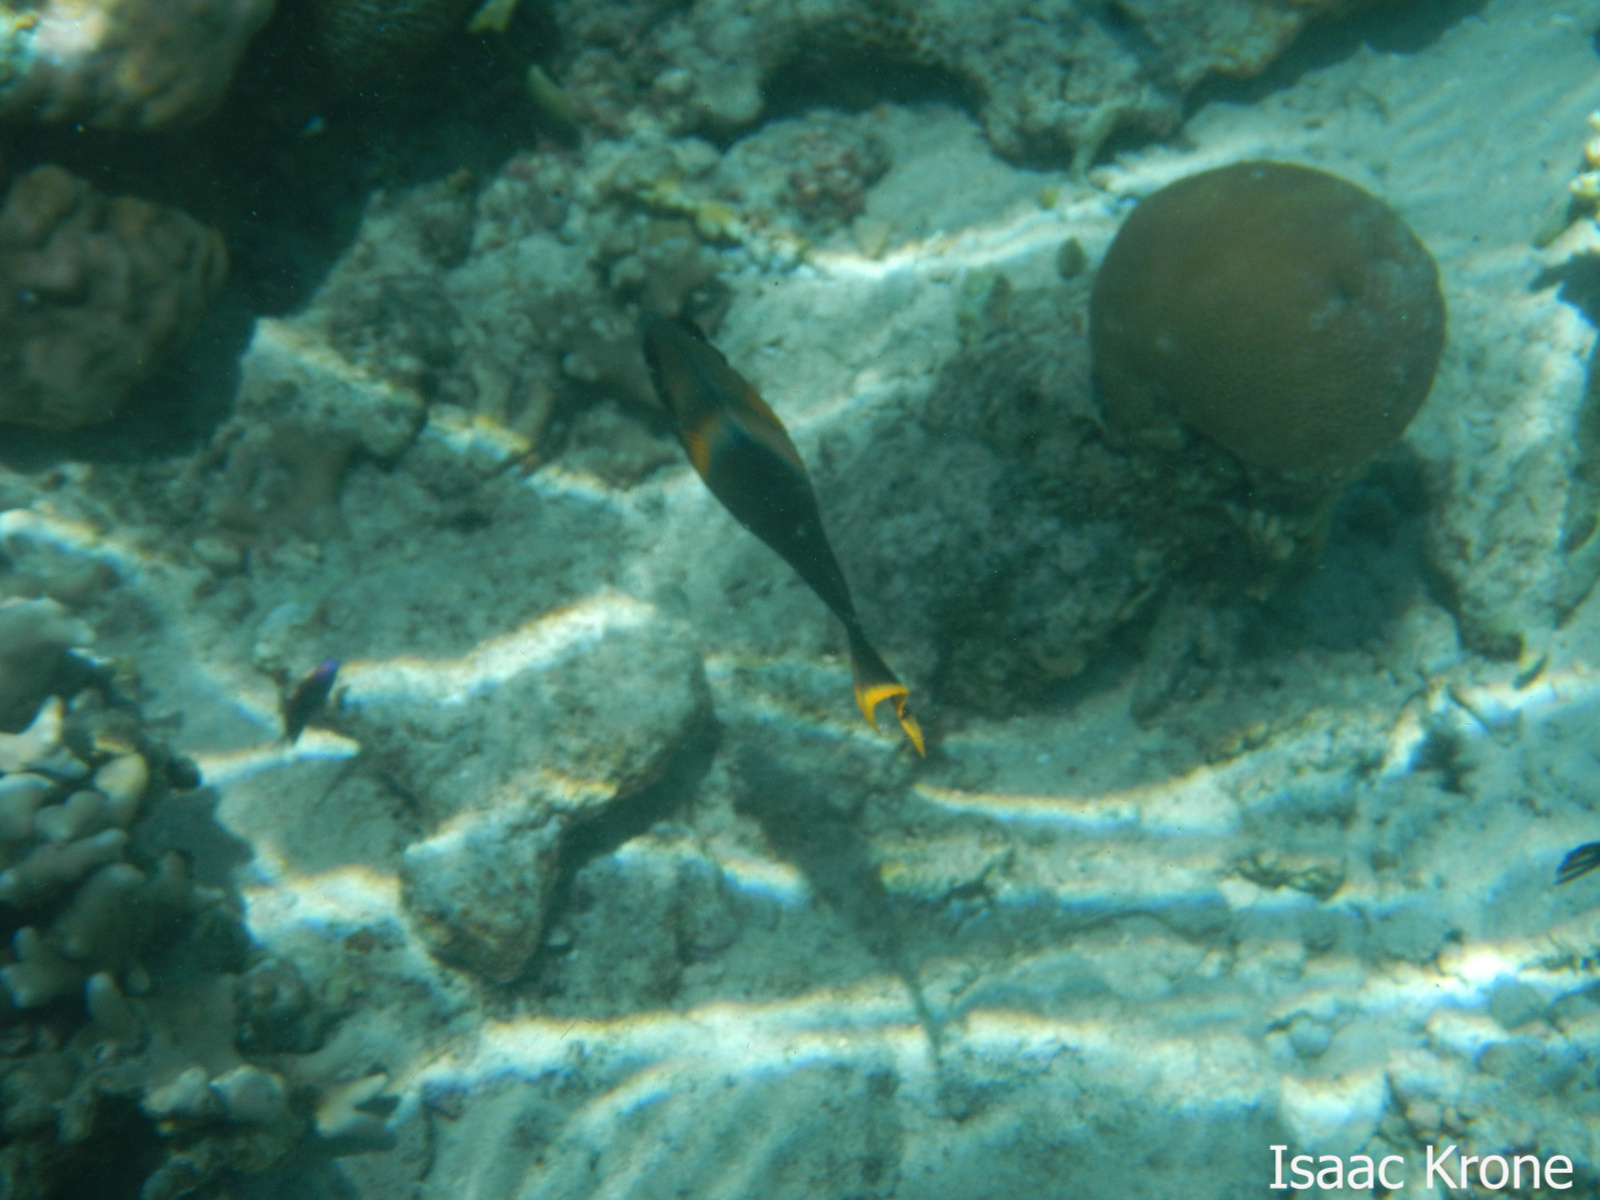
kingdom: Animalia
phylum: Chordata
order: Perciformes
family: Acanthuridae
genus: Acanthurus
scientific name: Acanthurus pyroferus
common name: Chocolate surgeonfish
